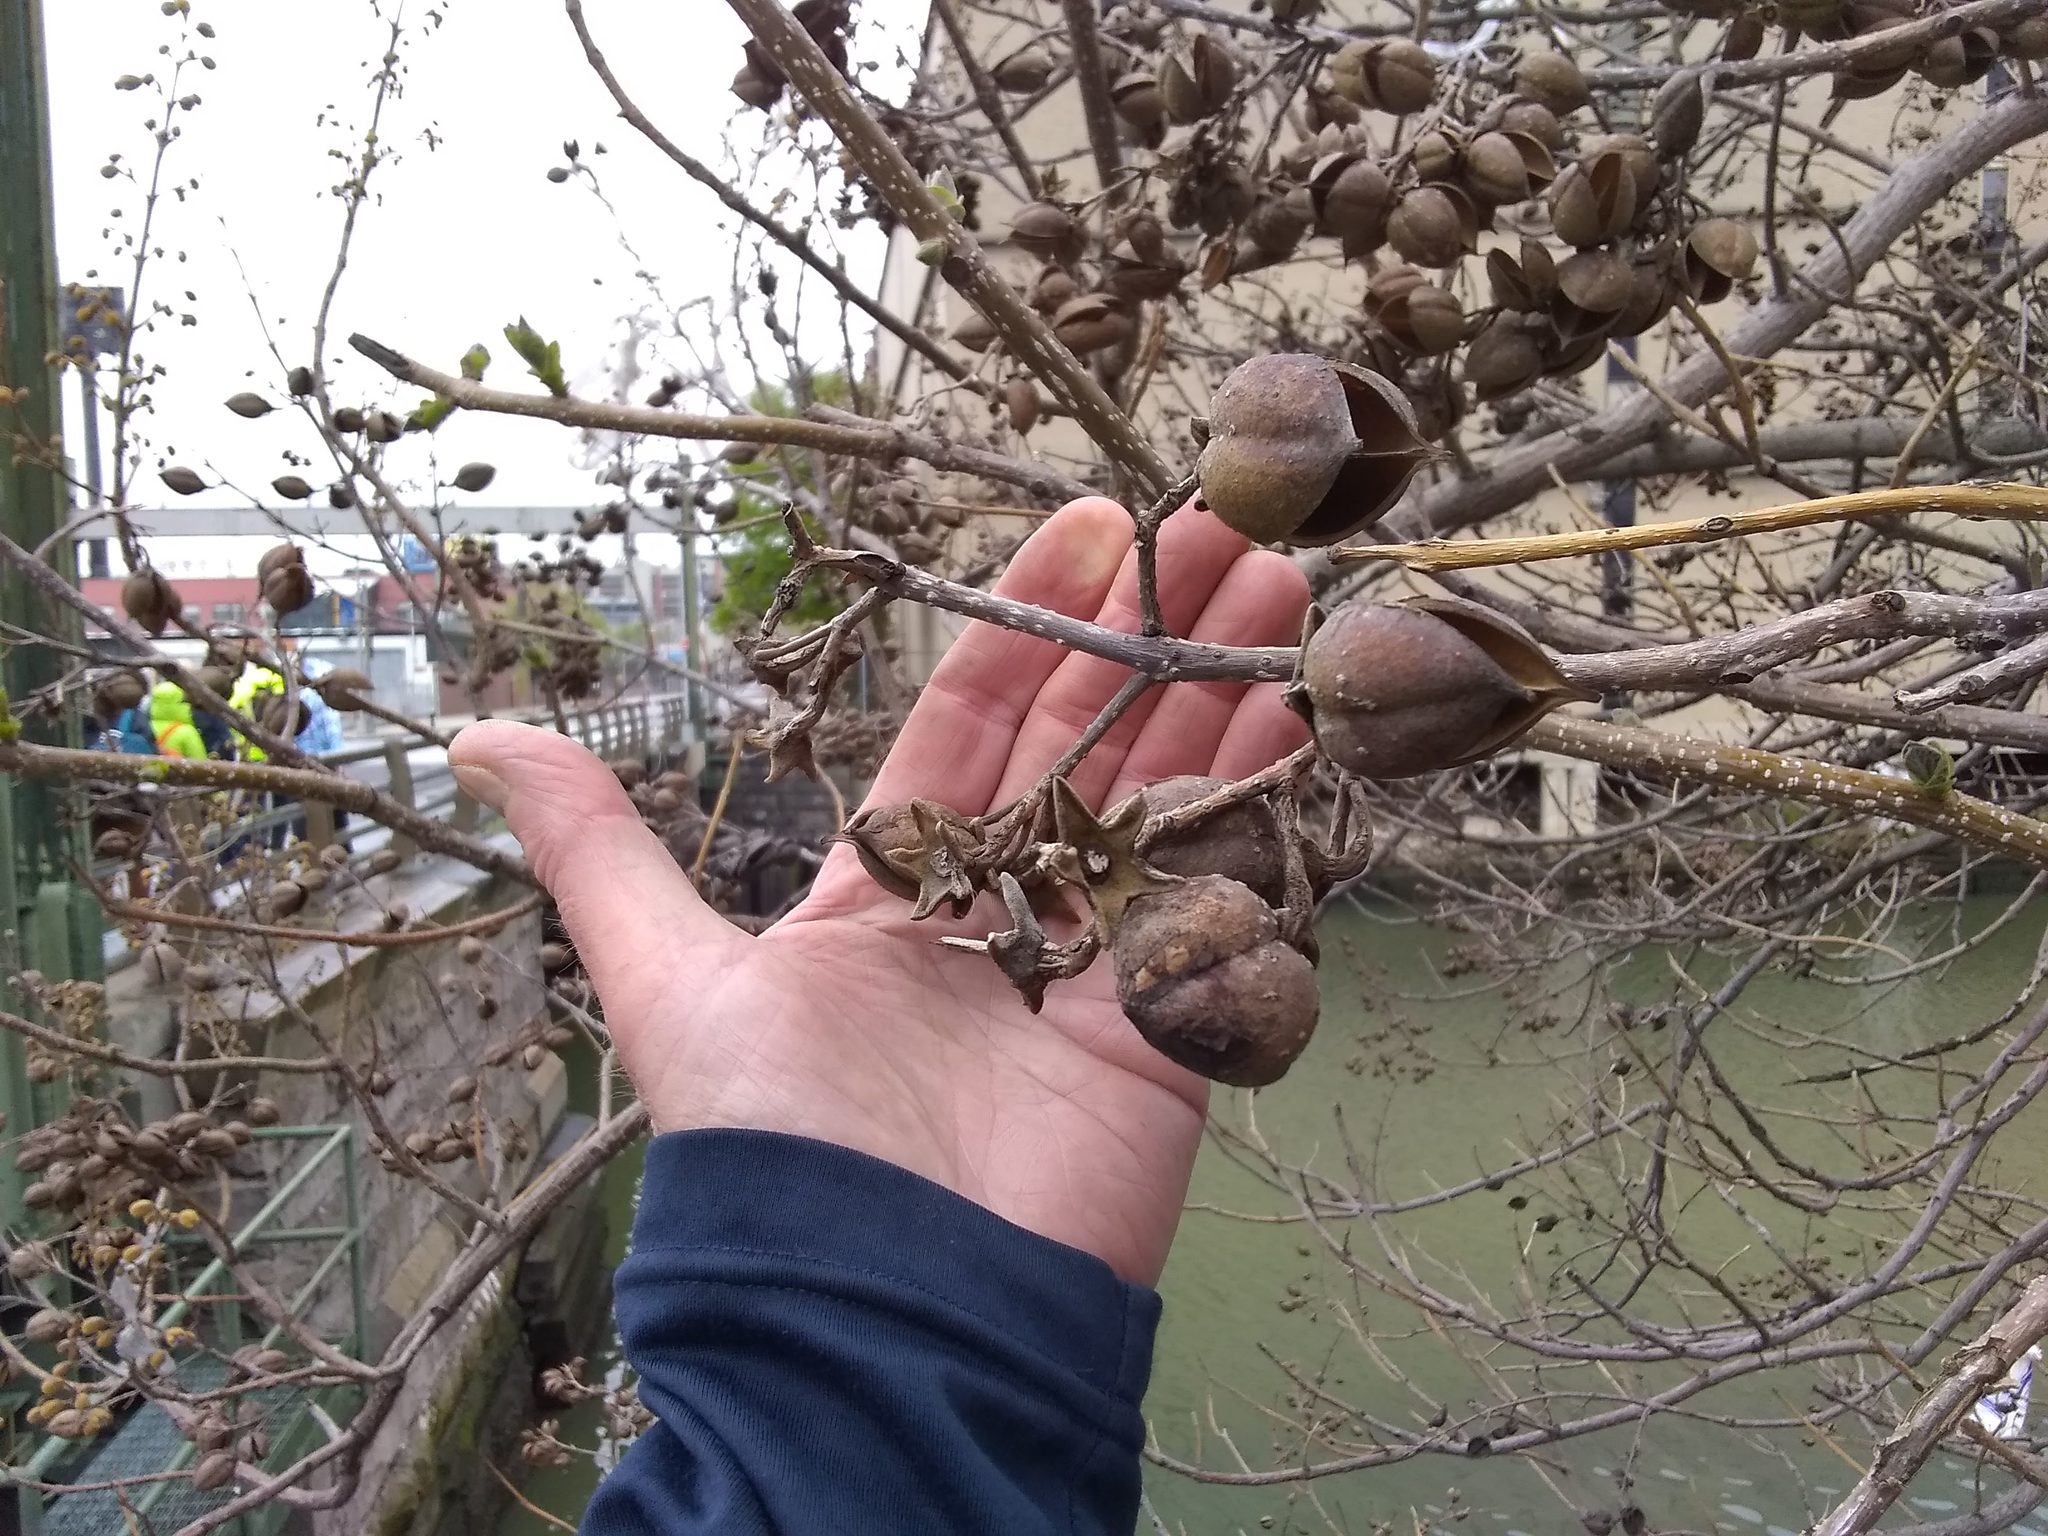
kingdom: Plantae
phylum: Tracheophyta
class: Magnoliopsida
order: Lamiales
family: Paulowniaceae
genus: Paulownia
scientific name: Paulownia tomentosa
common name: Foxglove-tree
